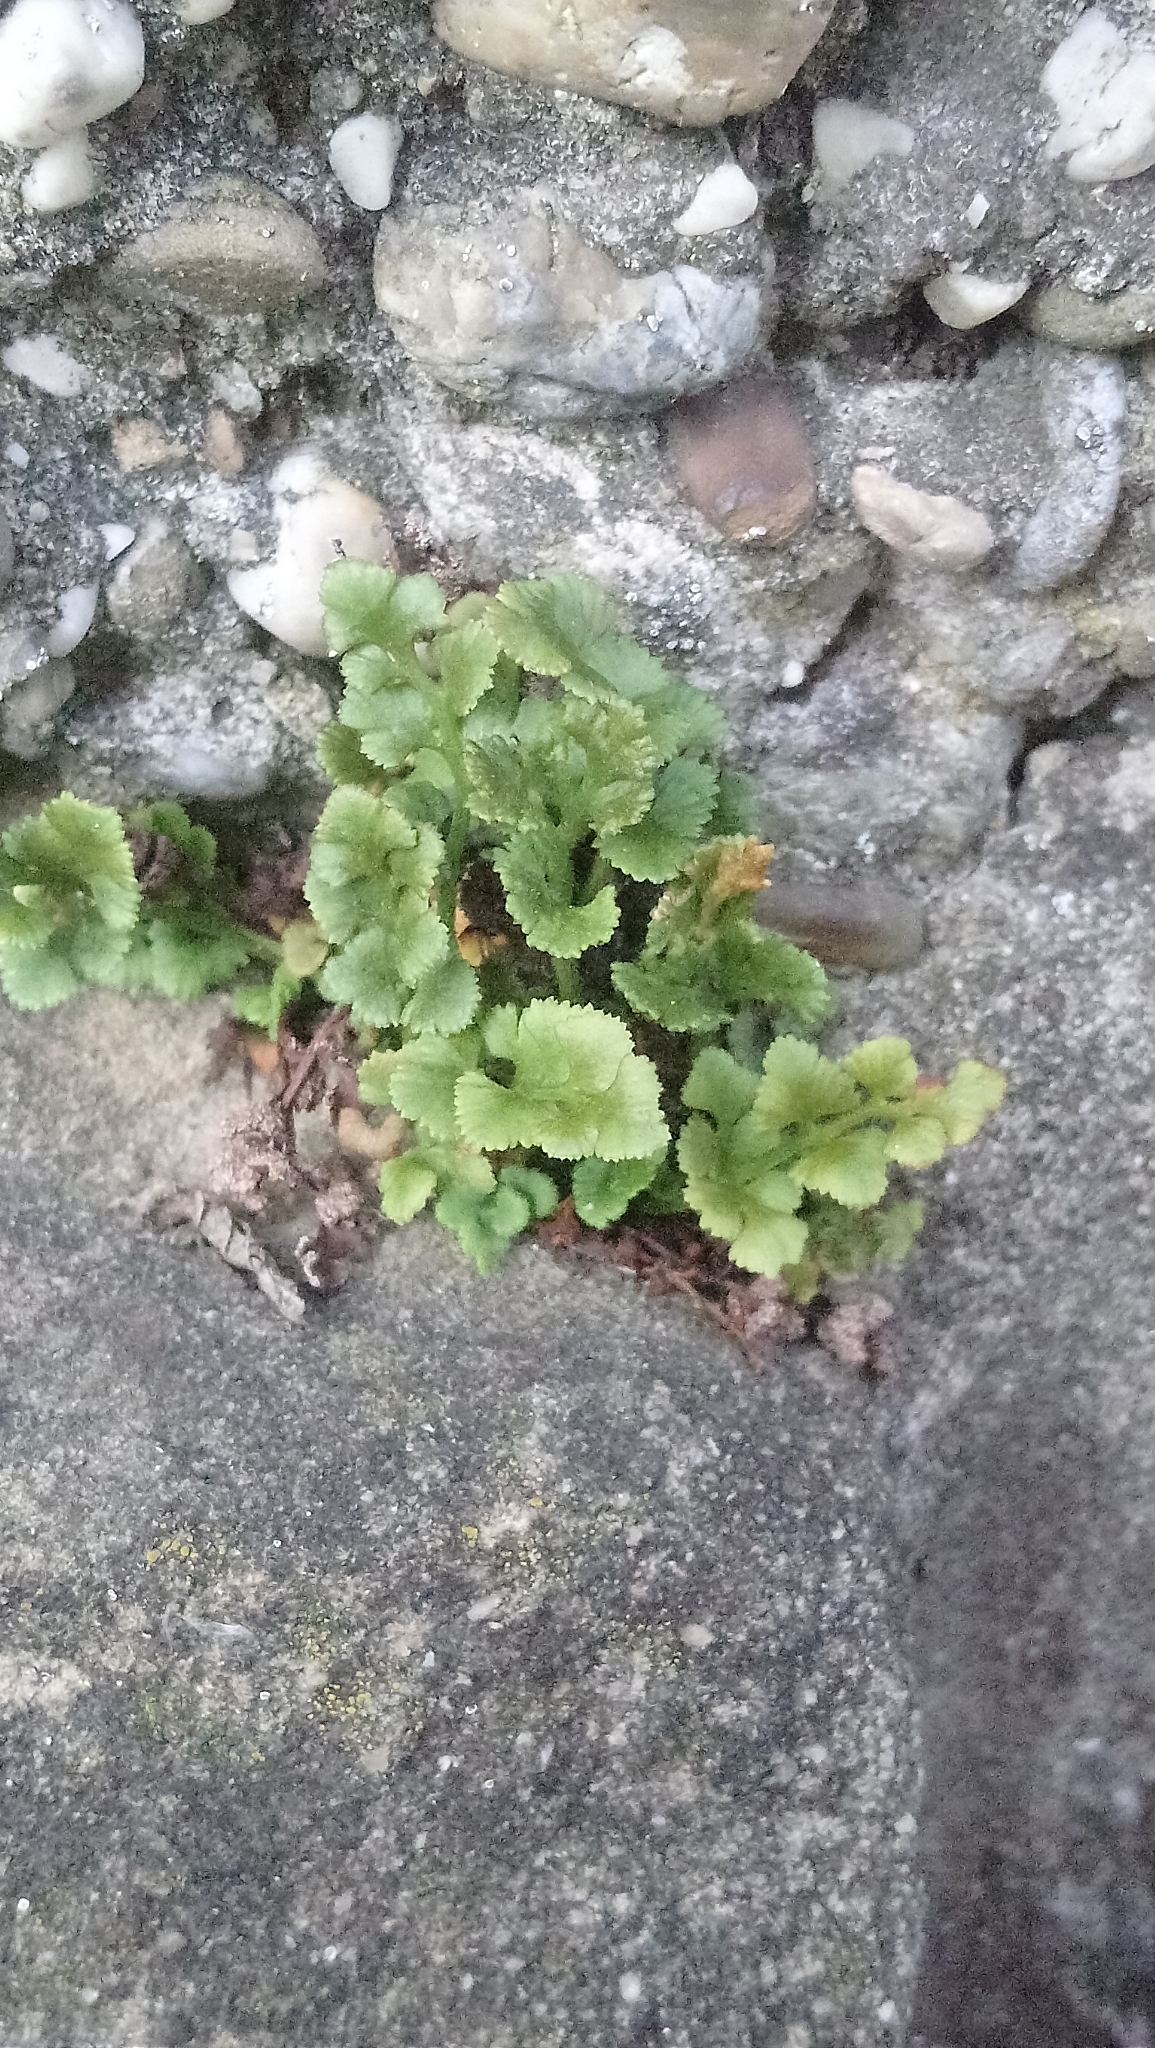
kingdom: Plantae
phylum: Tracheophyta
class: Polypodiopsida
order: Polypodiales
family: Aspleniaceae
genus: Asplenium
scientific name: Asplenium ruta-muraria
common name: Wall-rue
